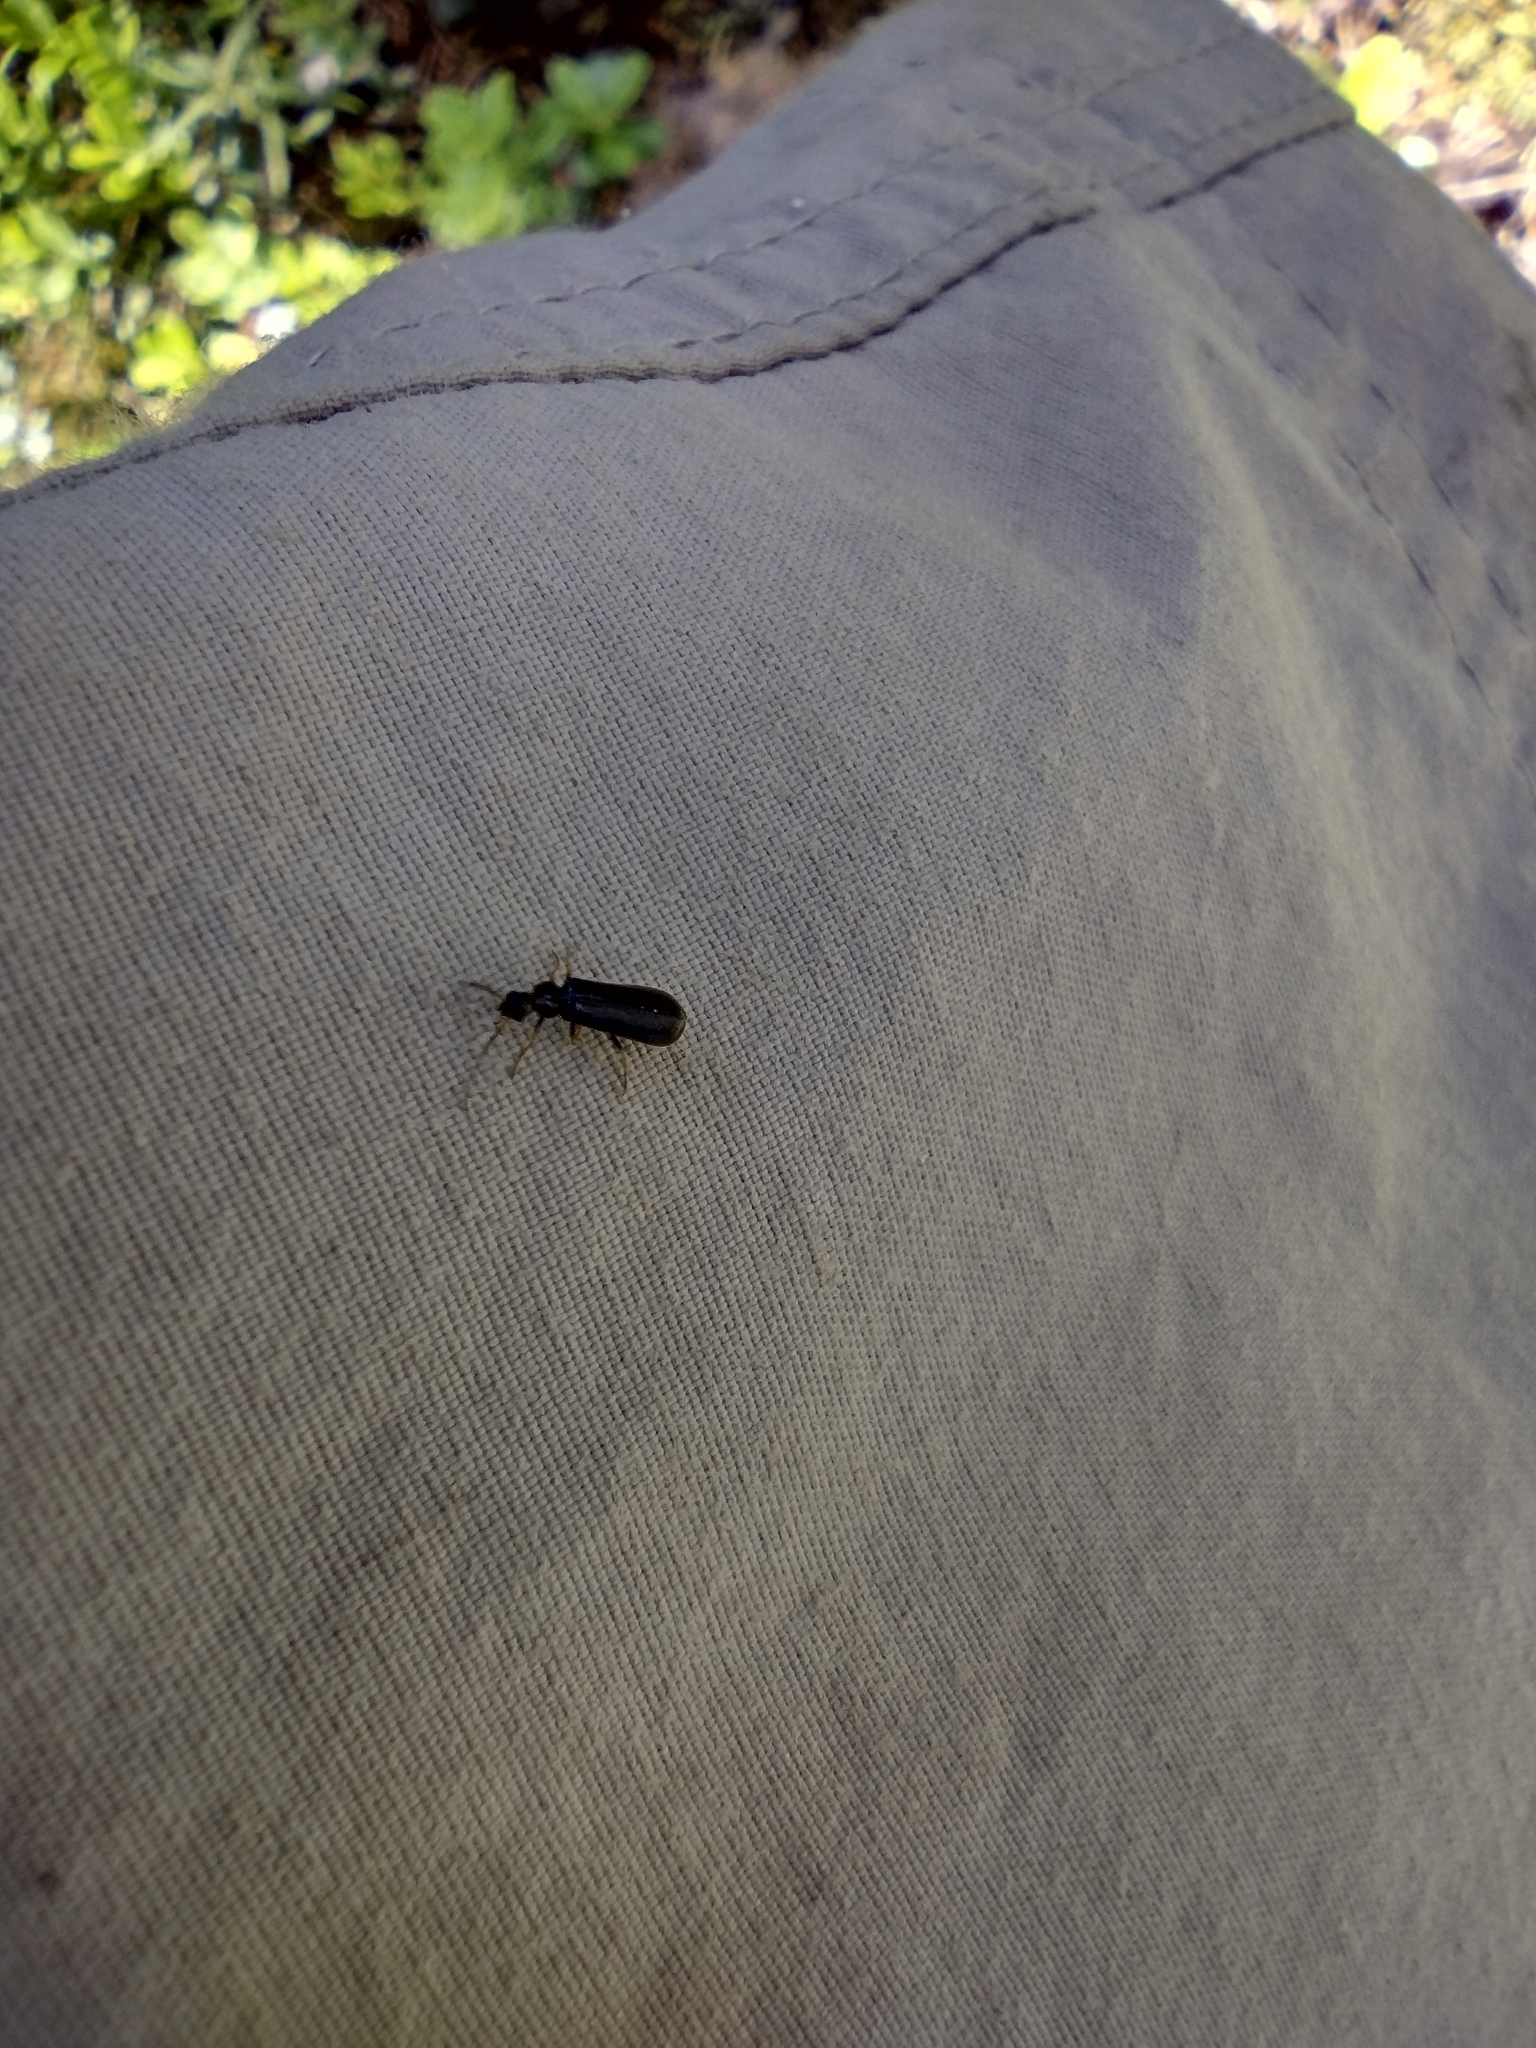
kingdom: Animalia
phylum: Arthropoda
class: Insecta
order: Coleoptera
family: Cantharidae
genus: Rhagonycha
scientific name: Rhagonycha atra
